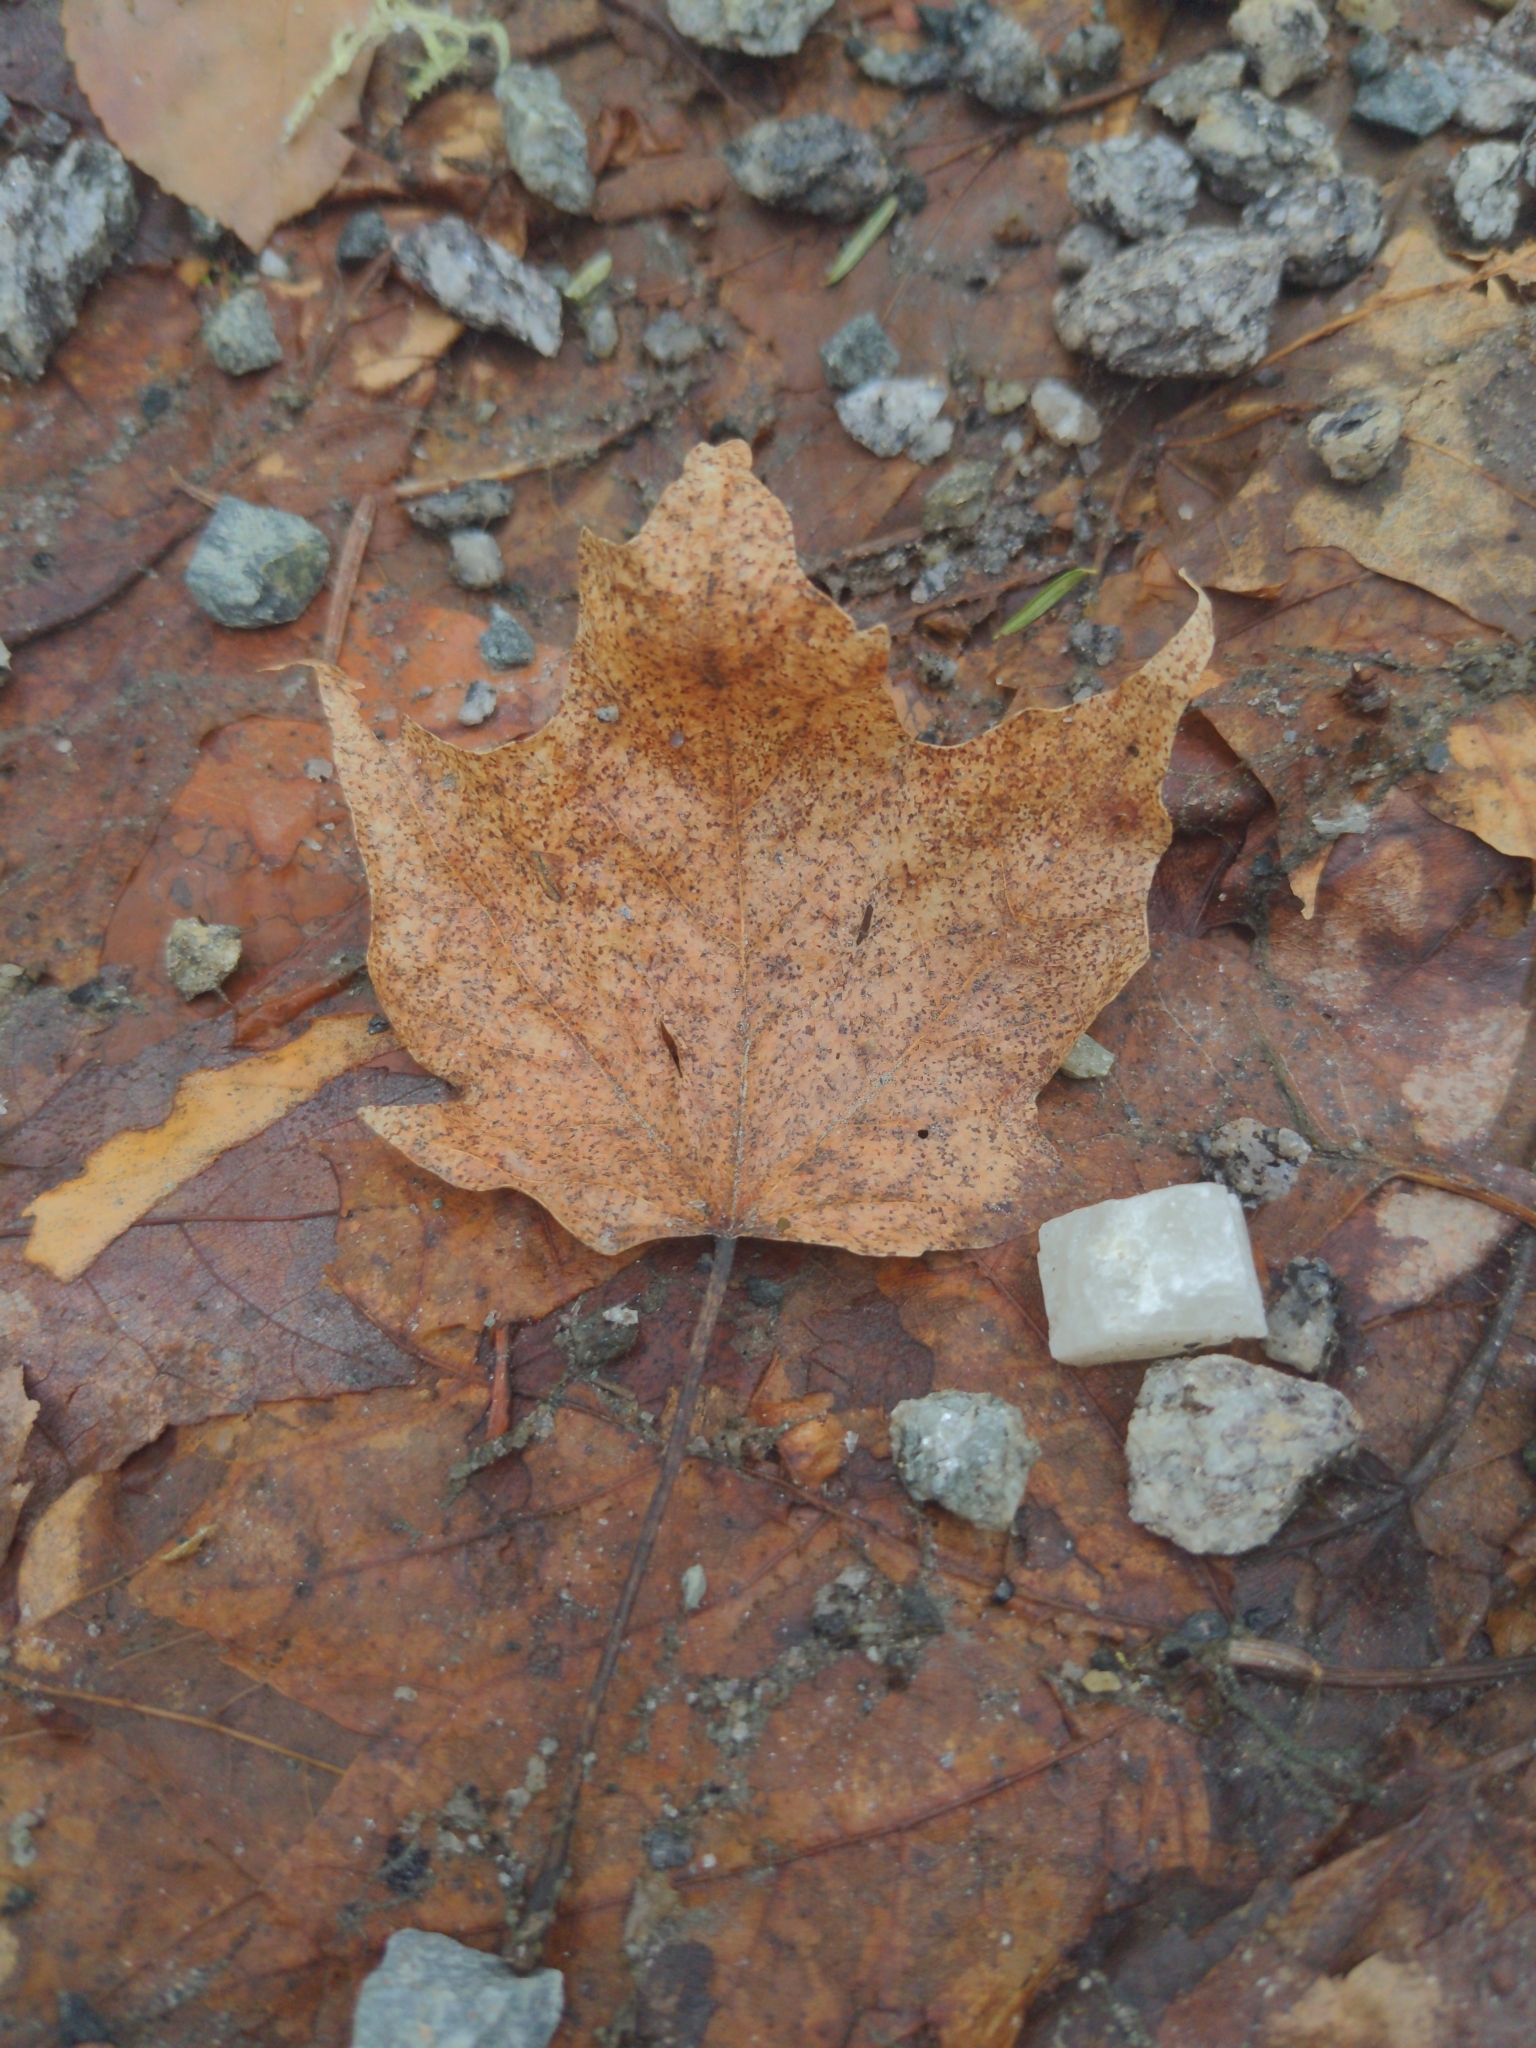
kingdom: Plantae
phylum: Tracheophyta
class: Magnoliopsida
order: Sapindales
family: Sapindaceae
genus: Acer
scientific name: Acer rubrum
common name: Red maple
